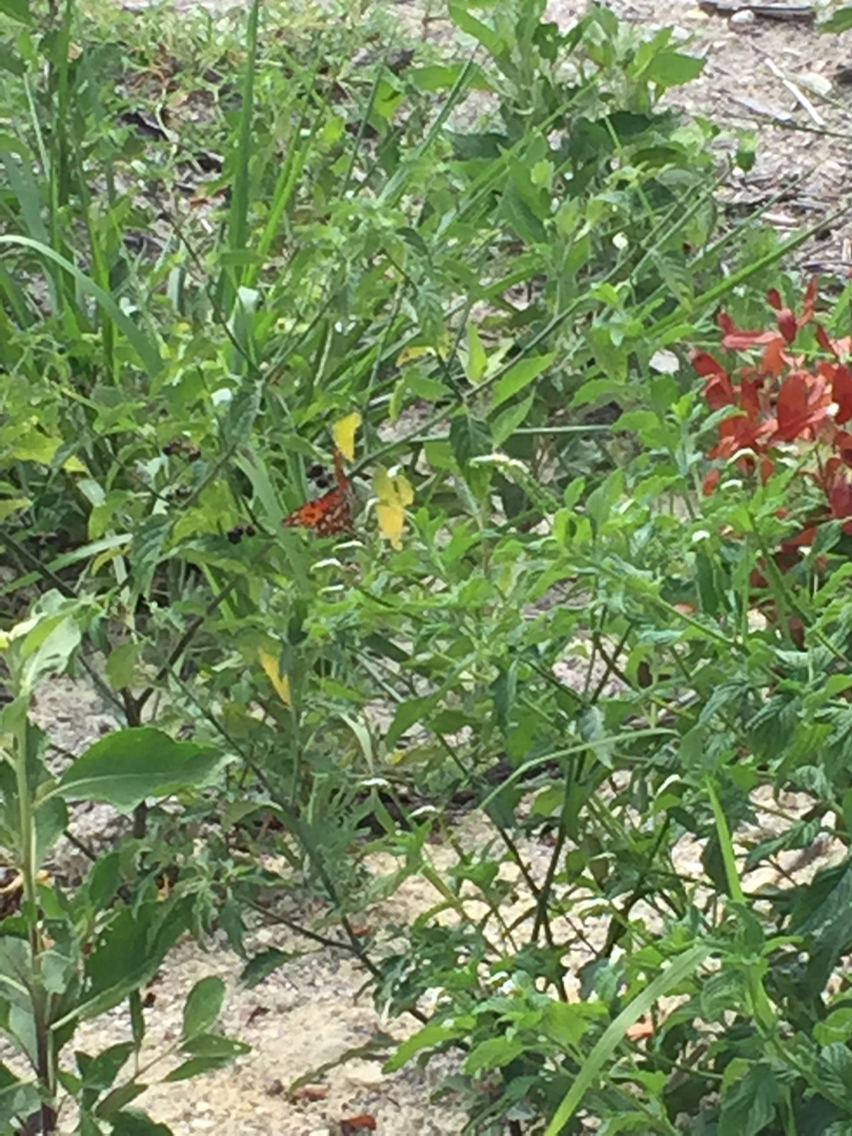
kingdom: Animalia
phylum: Arthropoda
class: Insecta
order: Lepidoptera
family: Nymphalidae
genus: Dione
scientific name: Dione vanillae
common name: Gulf fritillary
